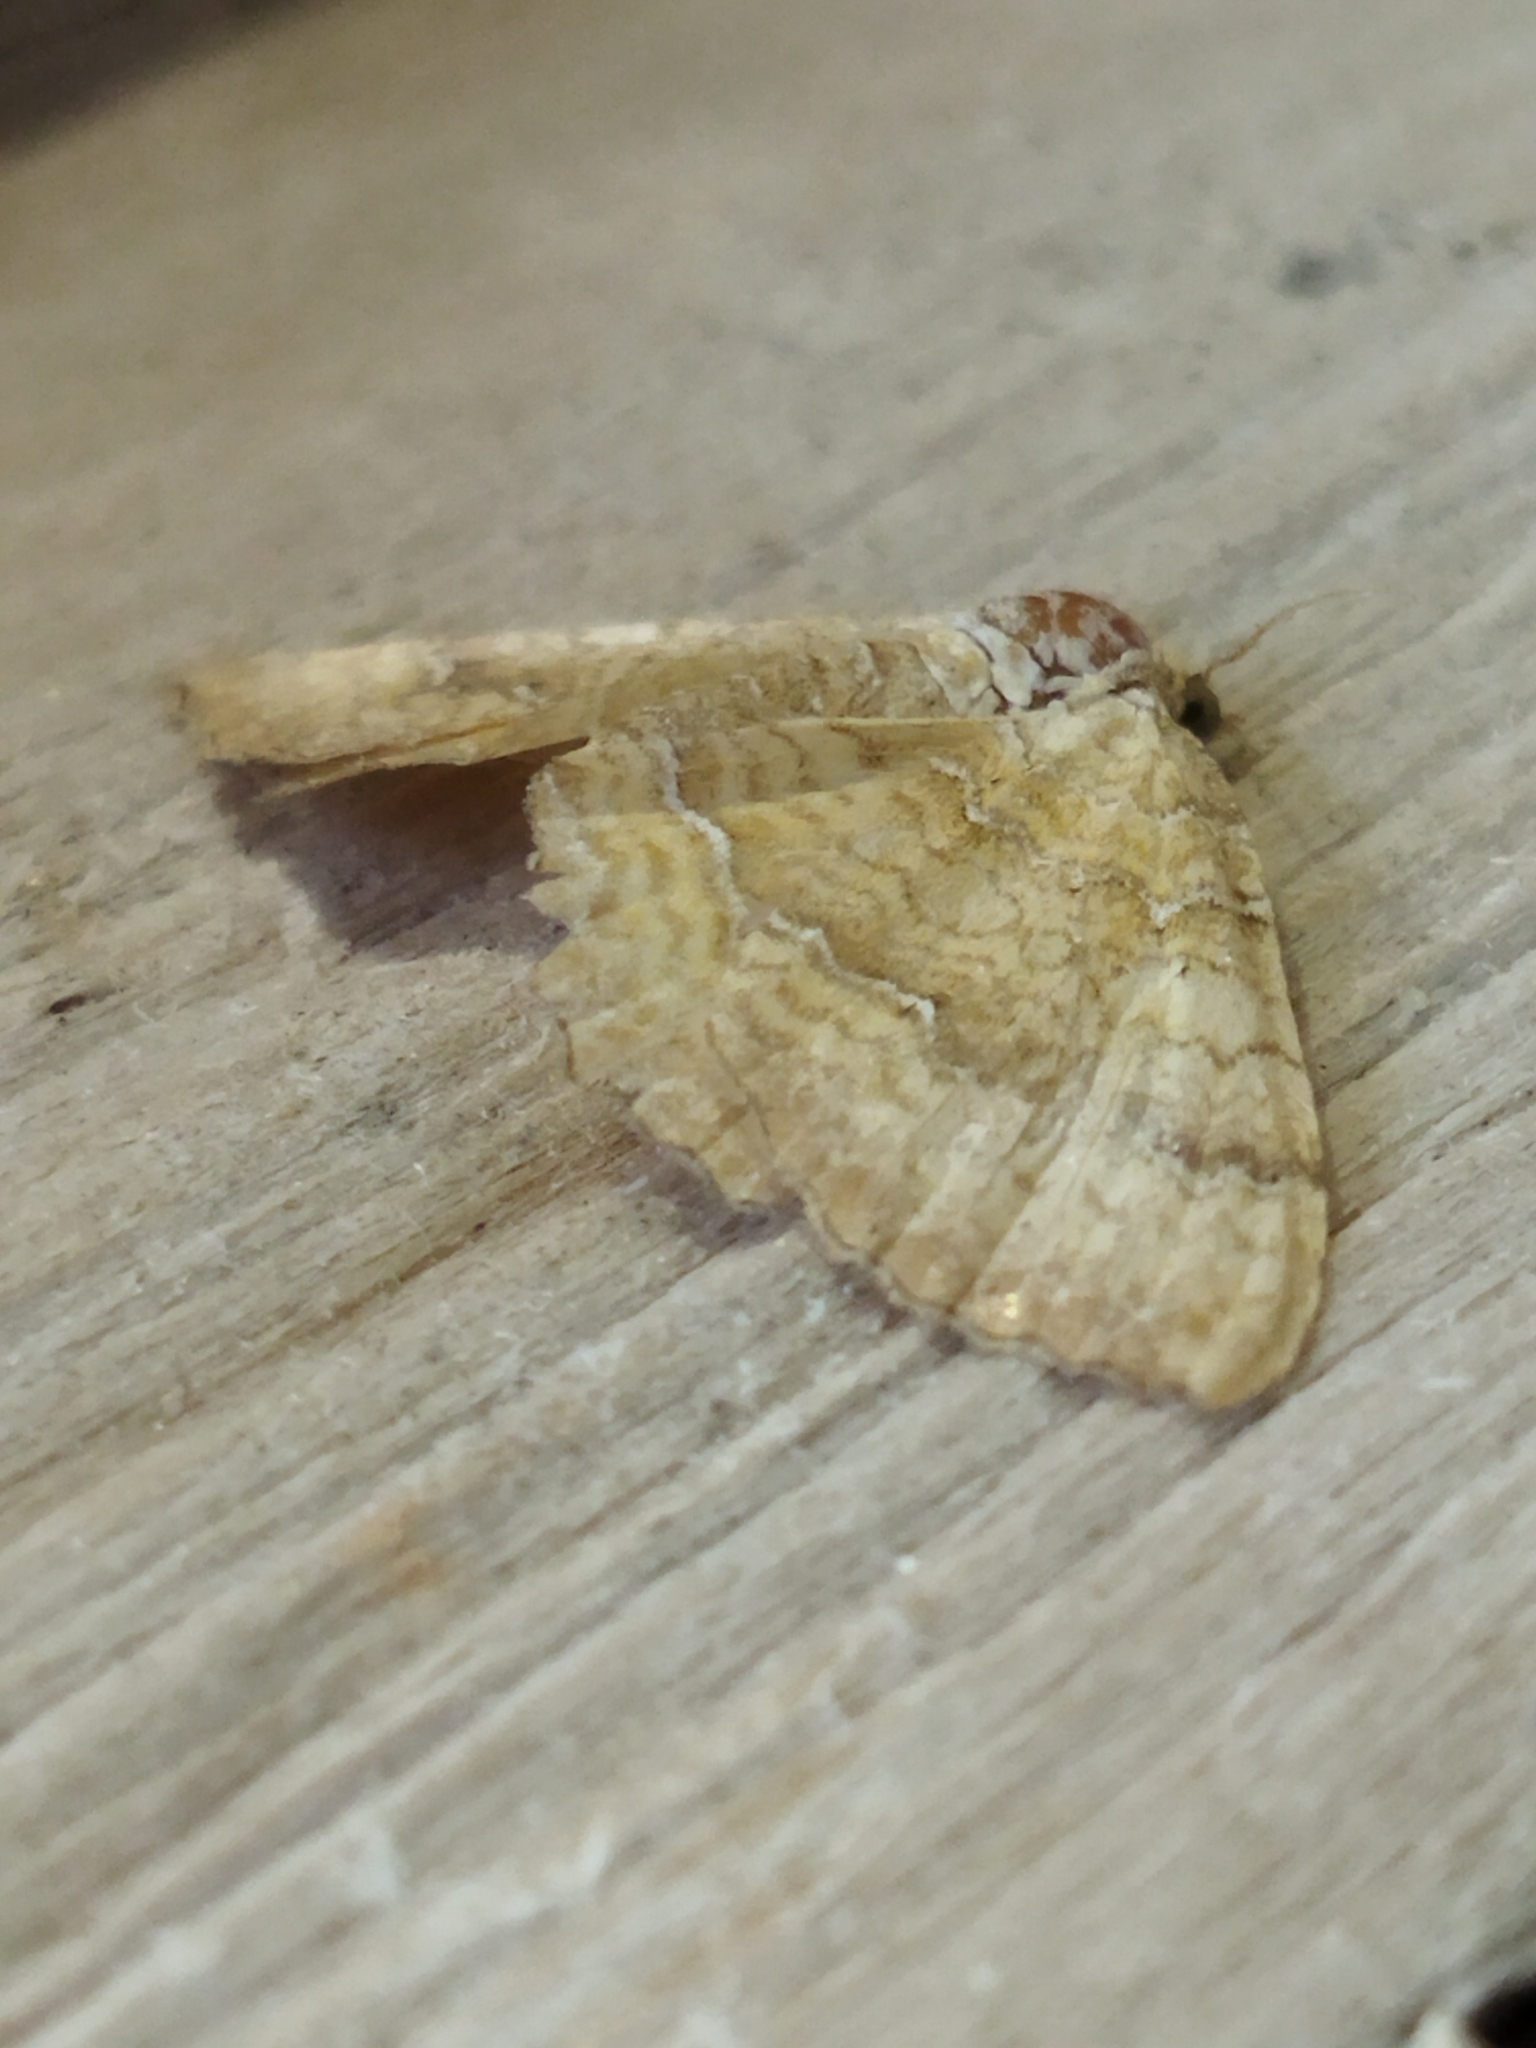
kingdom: Animalia
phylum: Arthropoda
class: Insecta
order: Lepidoptera
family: Geometridae
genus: Camptogramma
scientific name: Camptogramma bilineata
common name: Yellow shell
